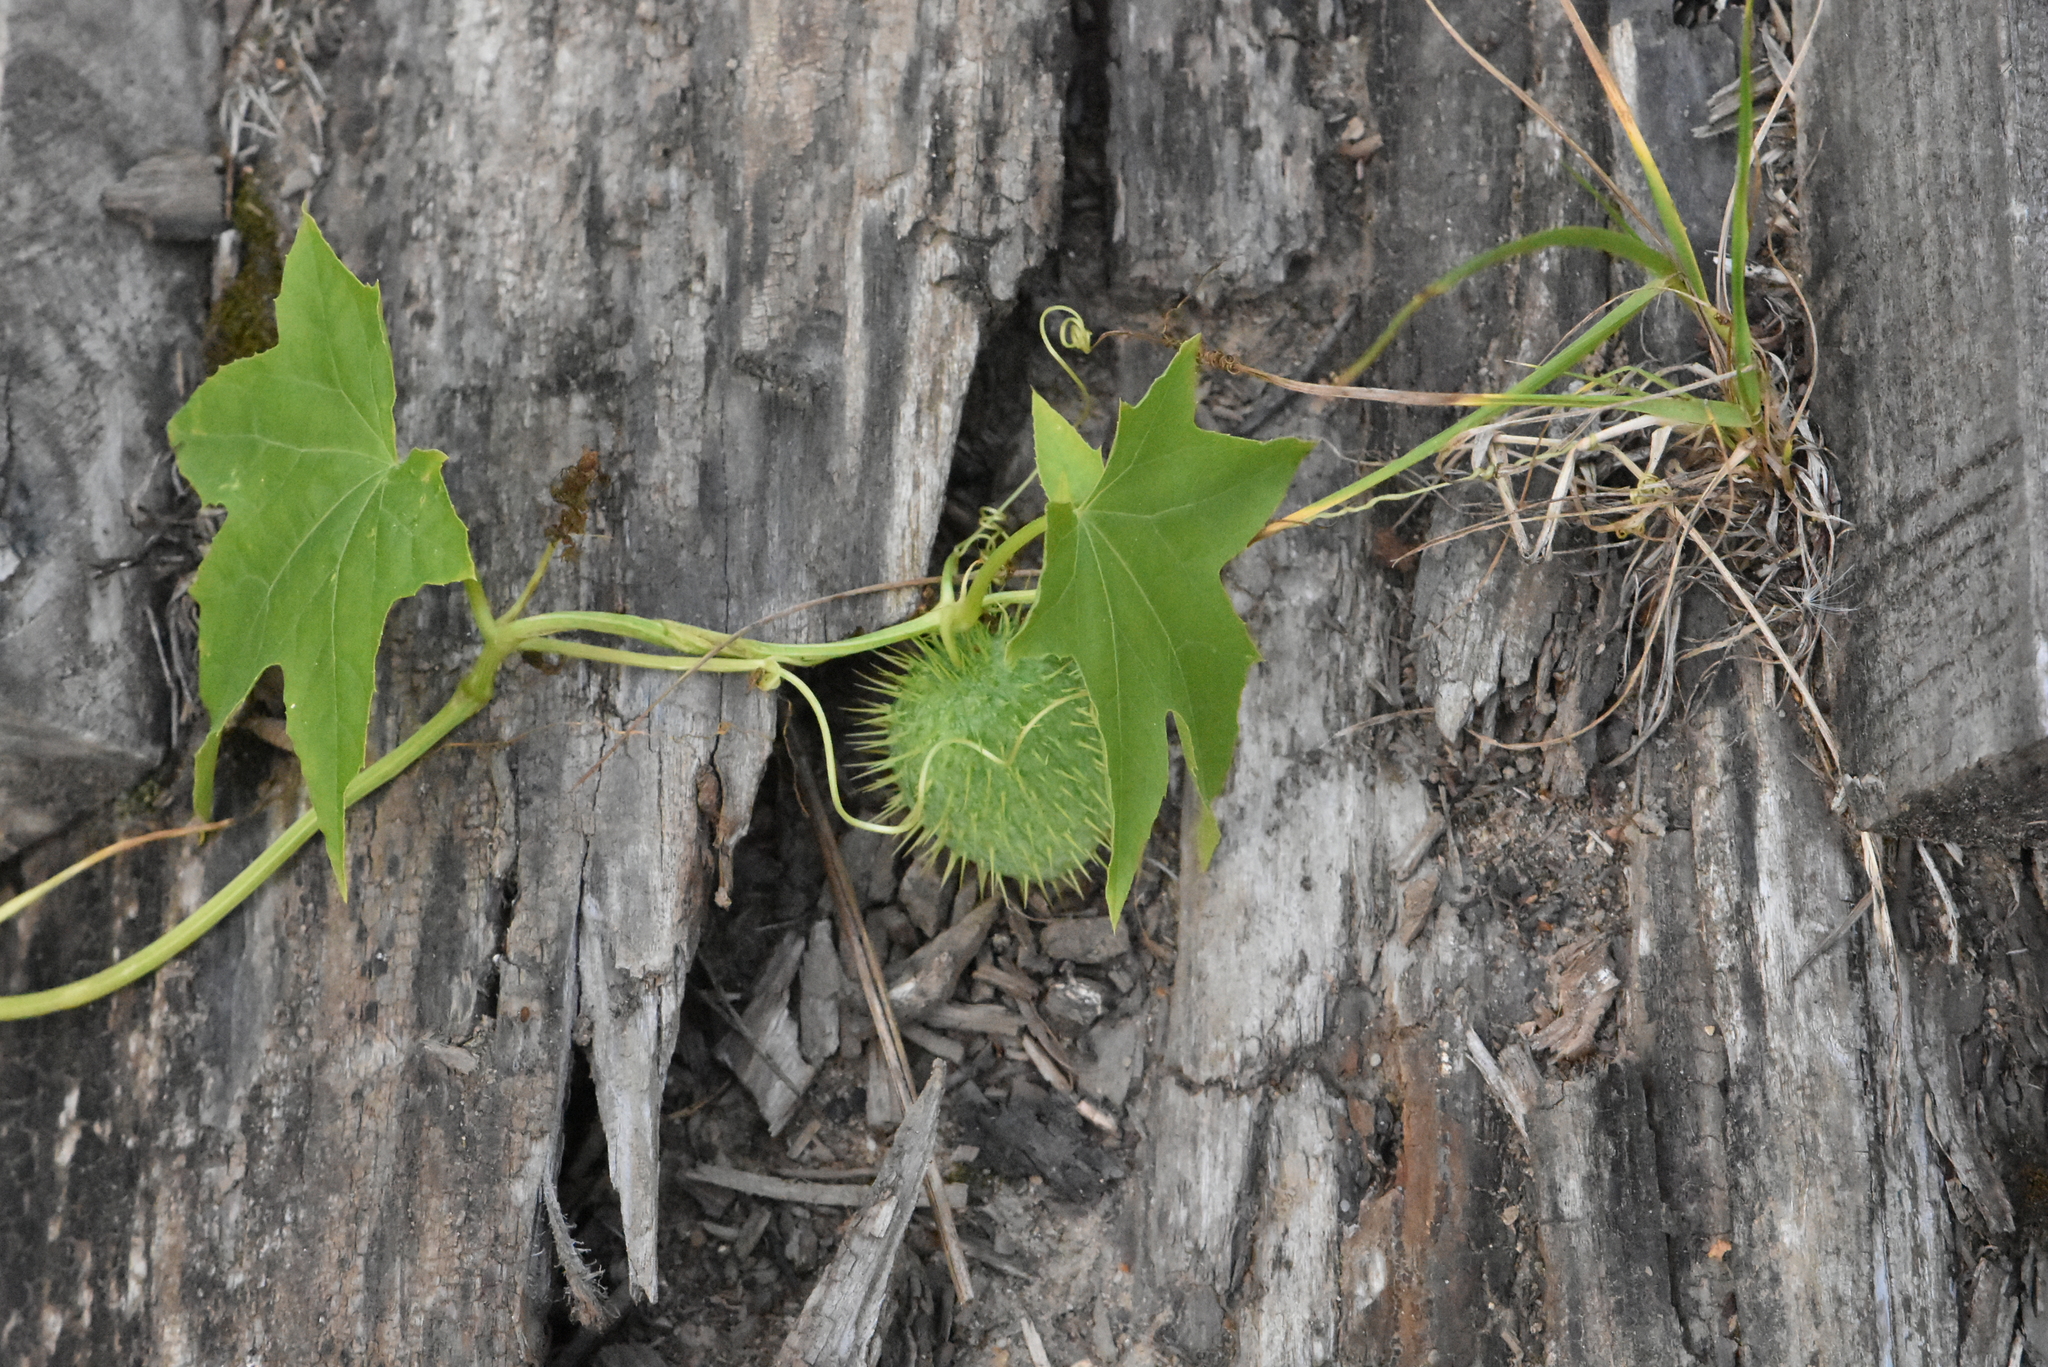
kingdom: Plantae
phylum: Tracheophyta
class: Magnoliopsida
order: Cucurbitales
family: Cucurbitaceae
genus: Echinocystis
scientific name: Echinocystis lobata
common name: Wild cucumber
